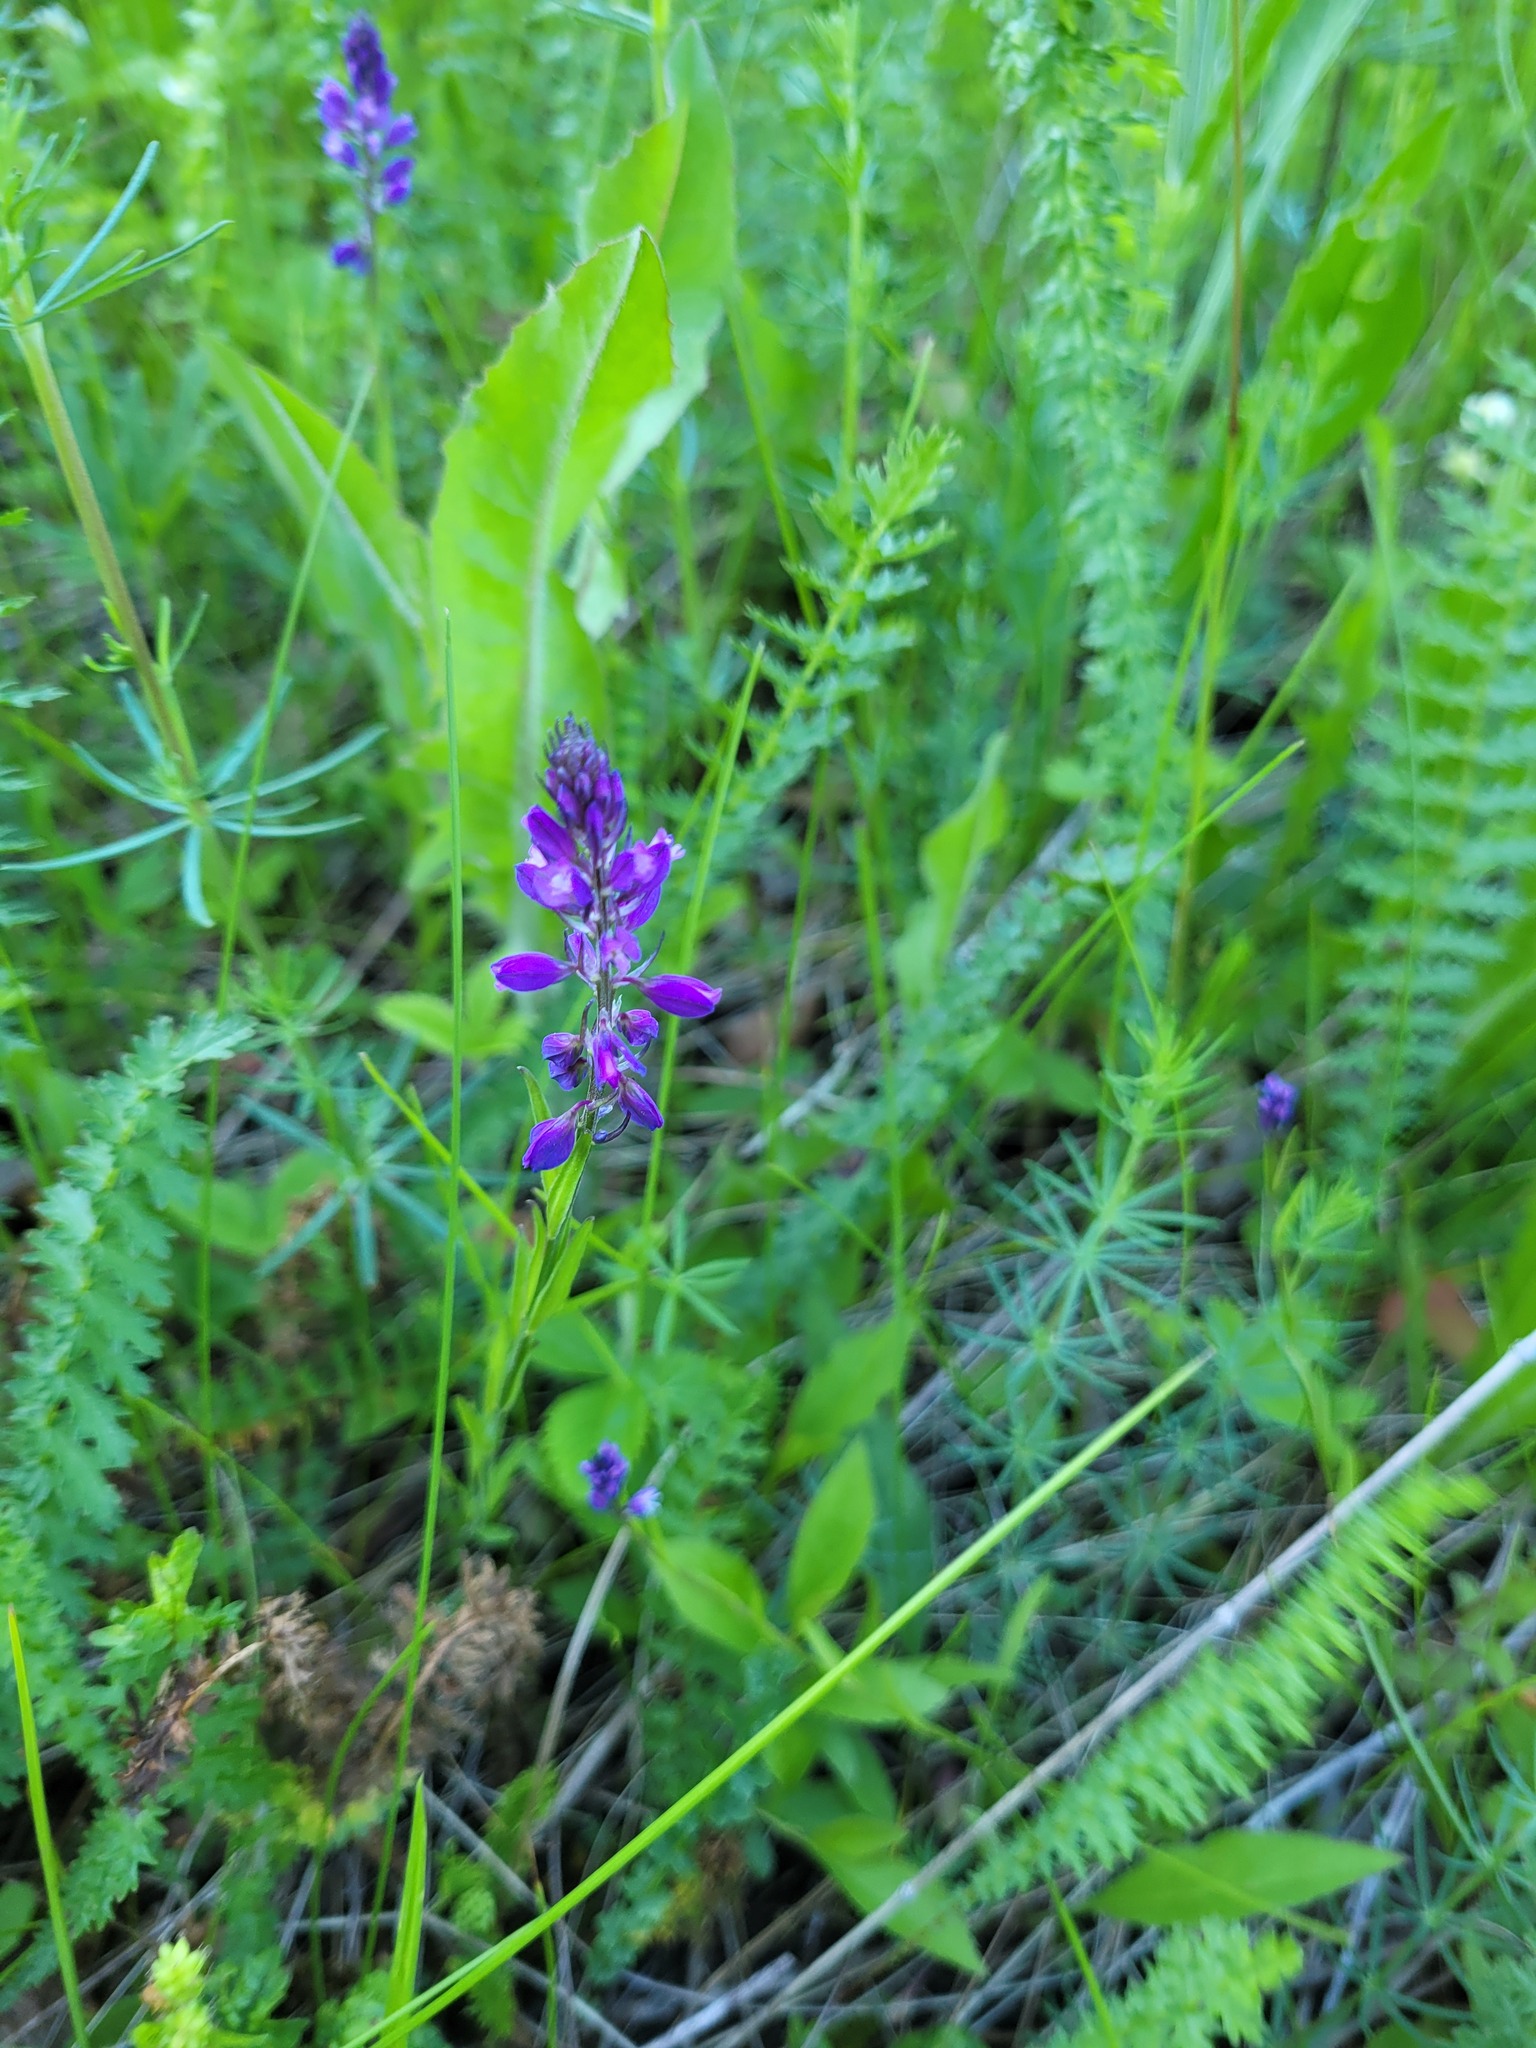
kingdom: Plantae
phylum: Tracheophyta
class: Magnoliopsida
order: Fabales
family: Polygalaceae
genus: Polygala
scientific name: Polygala comosa
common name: Tufted milkwort
